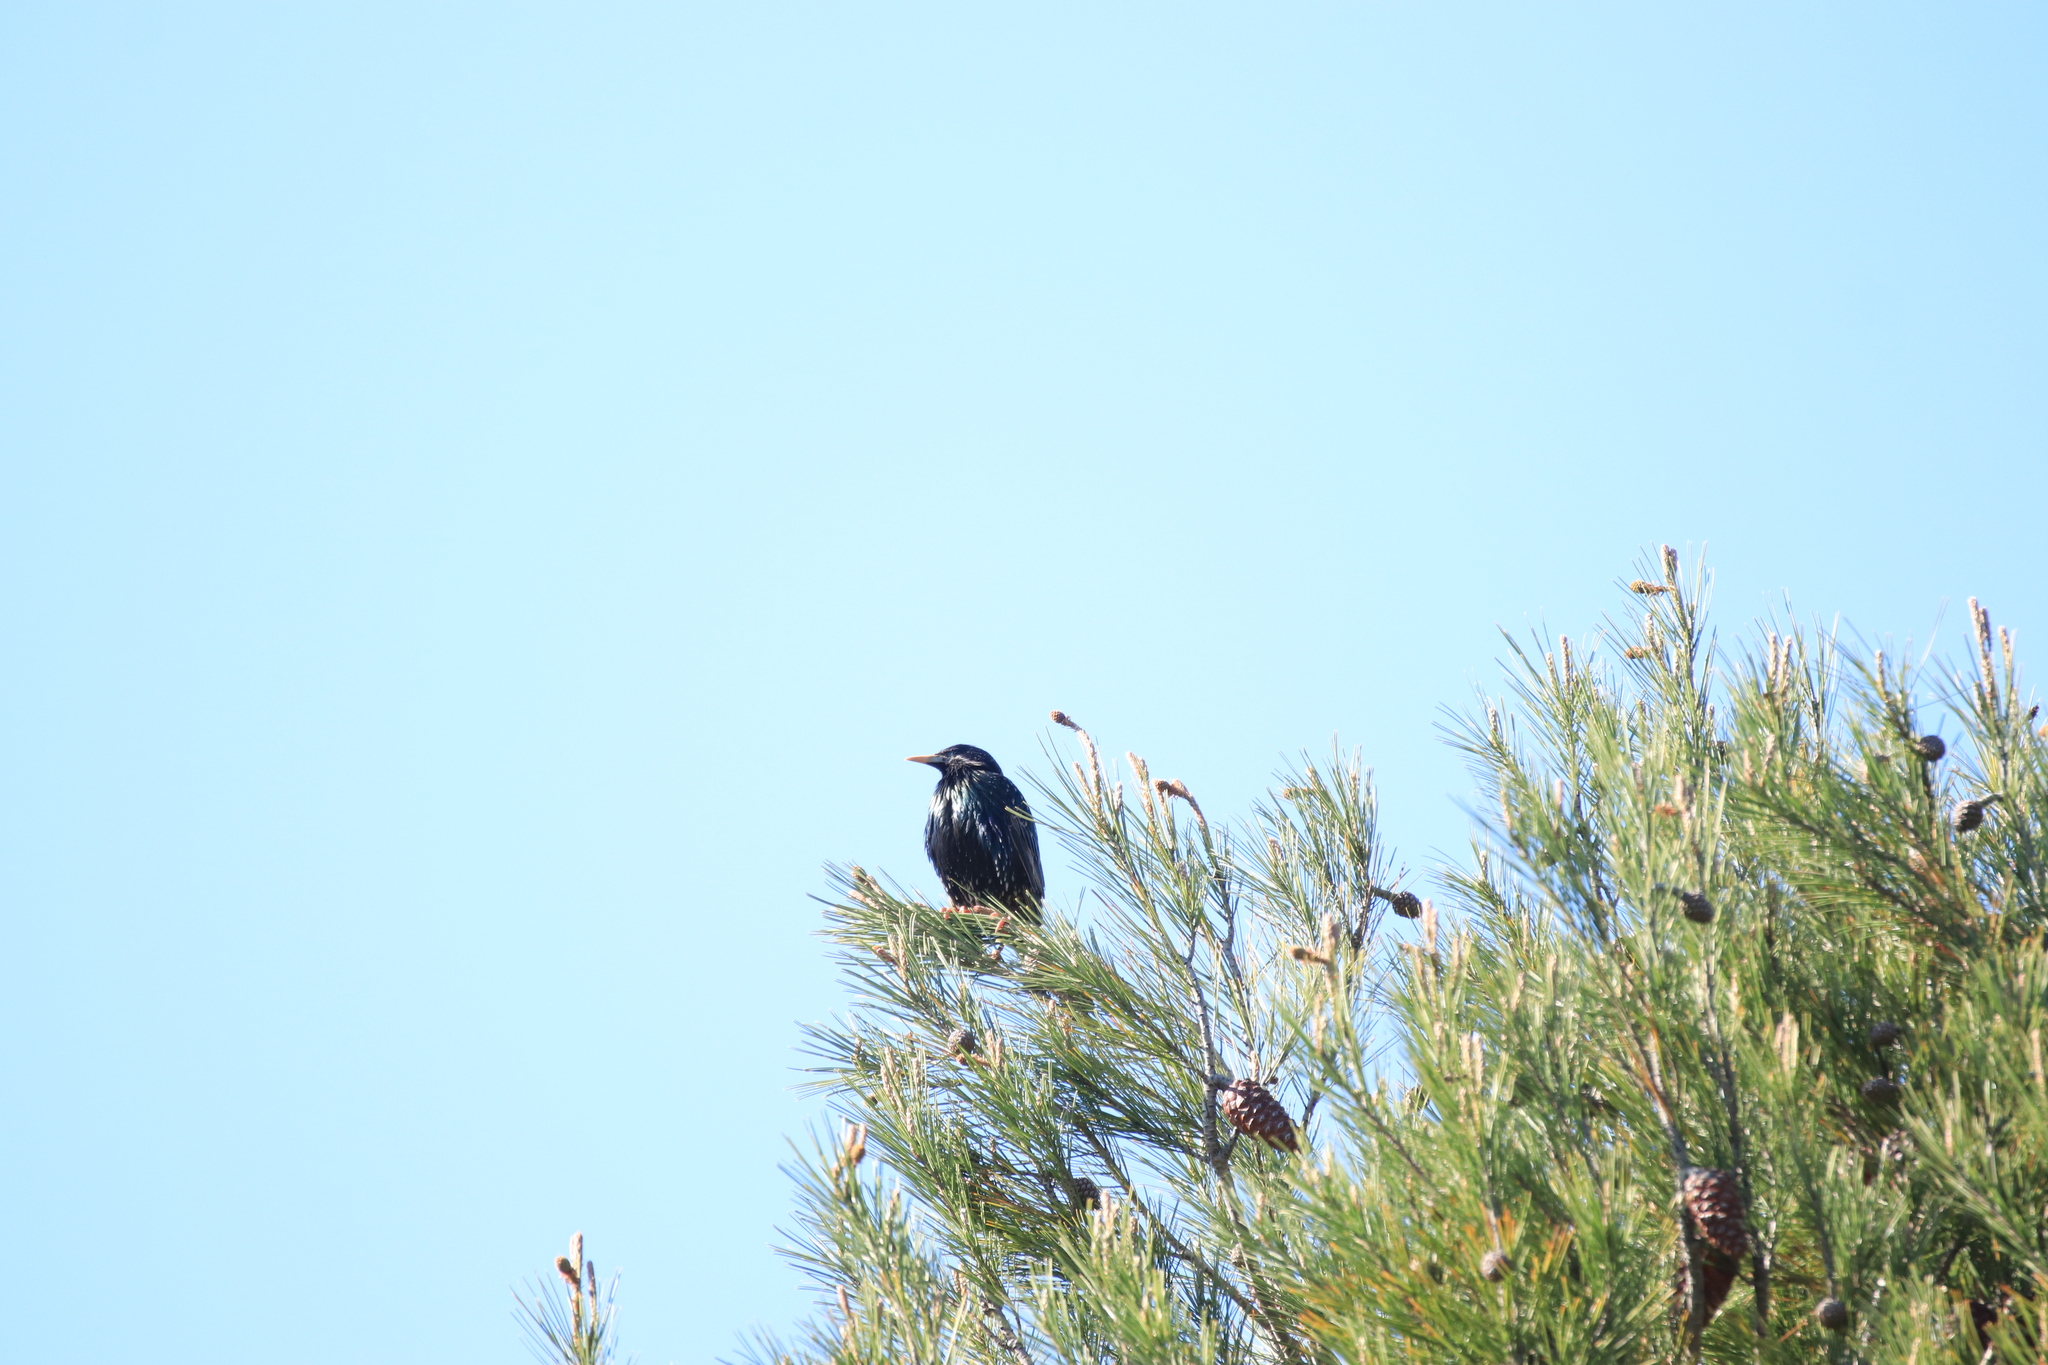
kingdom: Animalia
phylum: Chordata
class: Aves
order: Passeriformes
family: Sturnidae
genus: Sturnus
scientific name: Sturnus vulgaris
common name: Common starling
